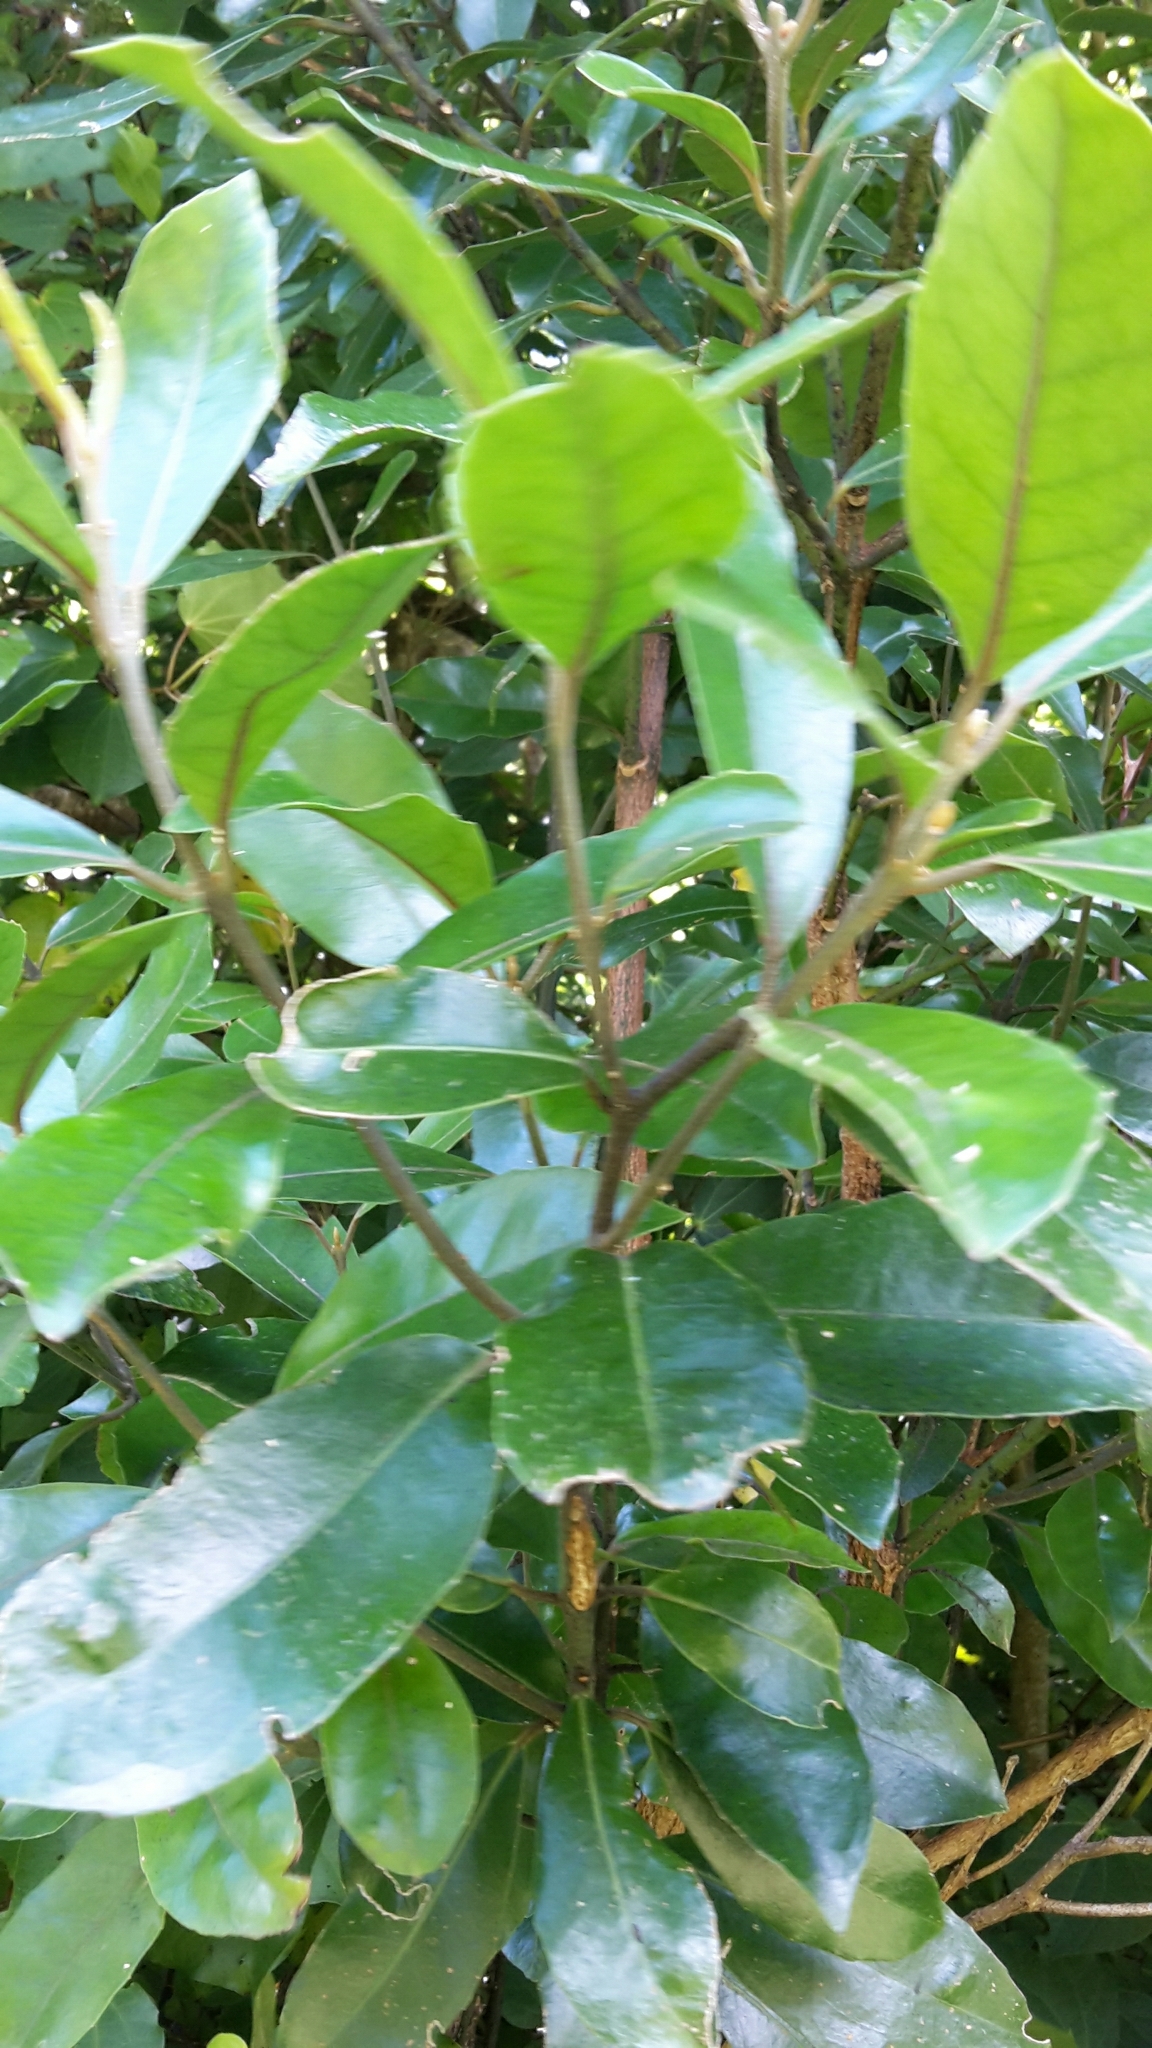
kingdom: Plantae
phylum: Tracheophyta
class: Magnoliopsida
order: Laurales
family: Monimiaceae
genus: Hedycarya
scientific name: Hedycarya arborea
